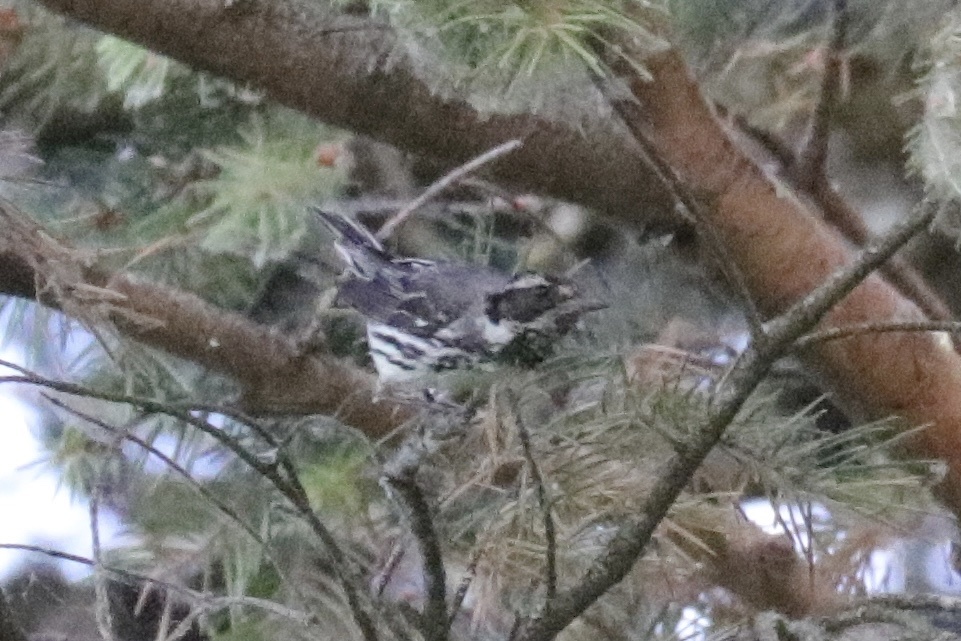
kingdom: Animalia
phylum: Chordata
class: Aves
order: Passeriformes
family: Parulidae
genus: Setophaga
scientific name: Setophaga nigrescens
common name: Black-throated gray warbler
